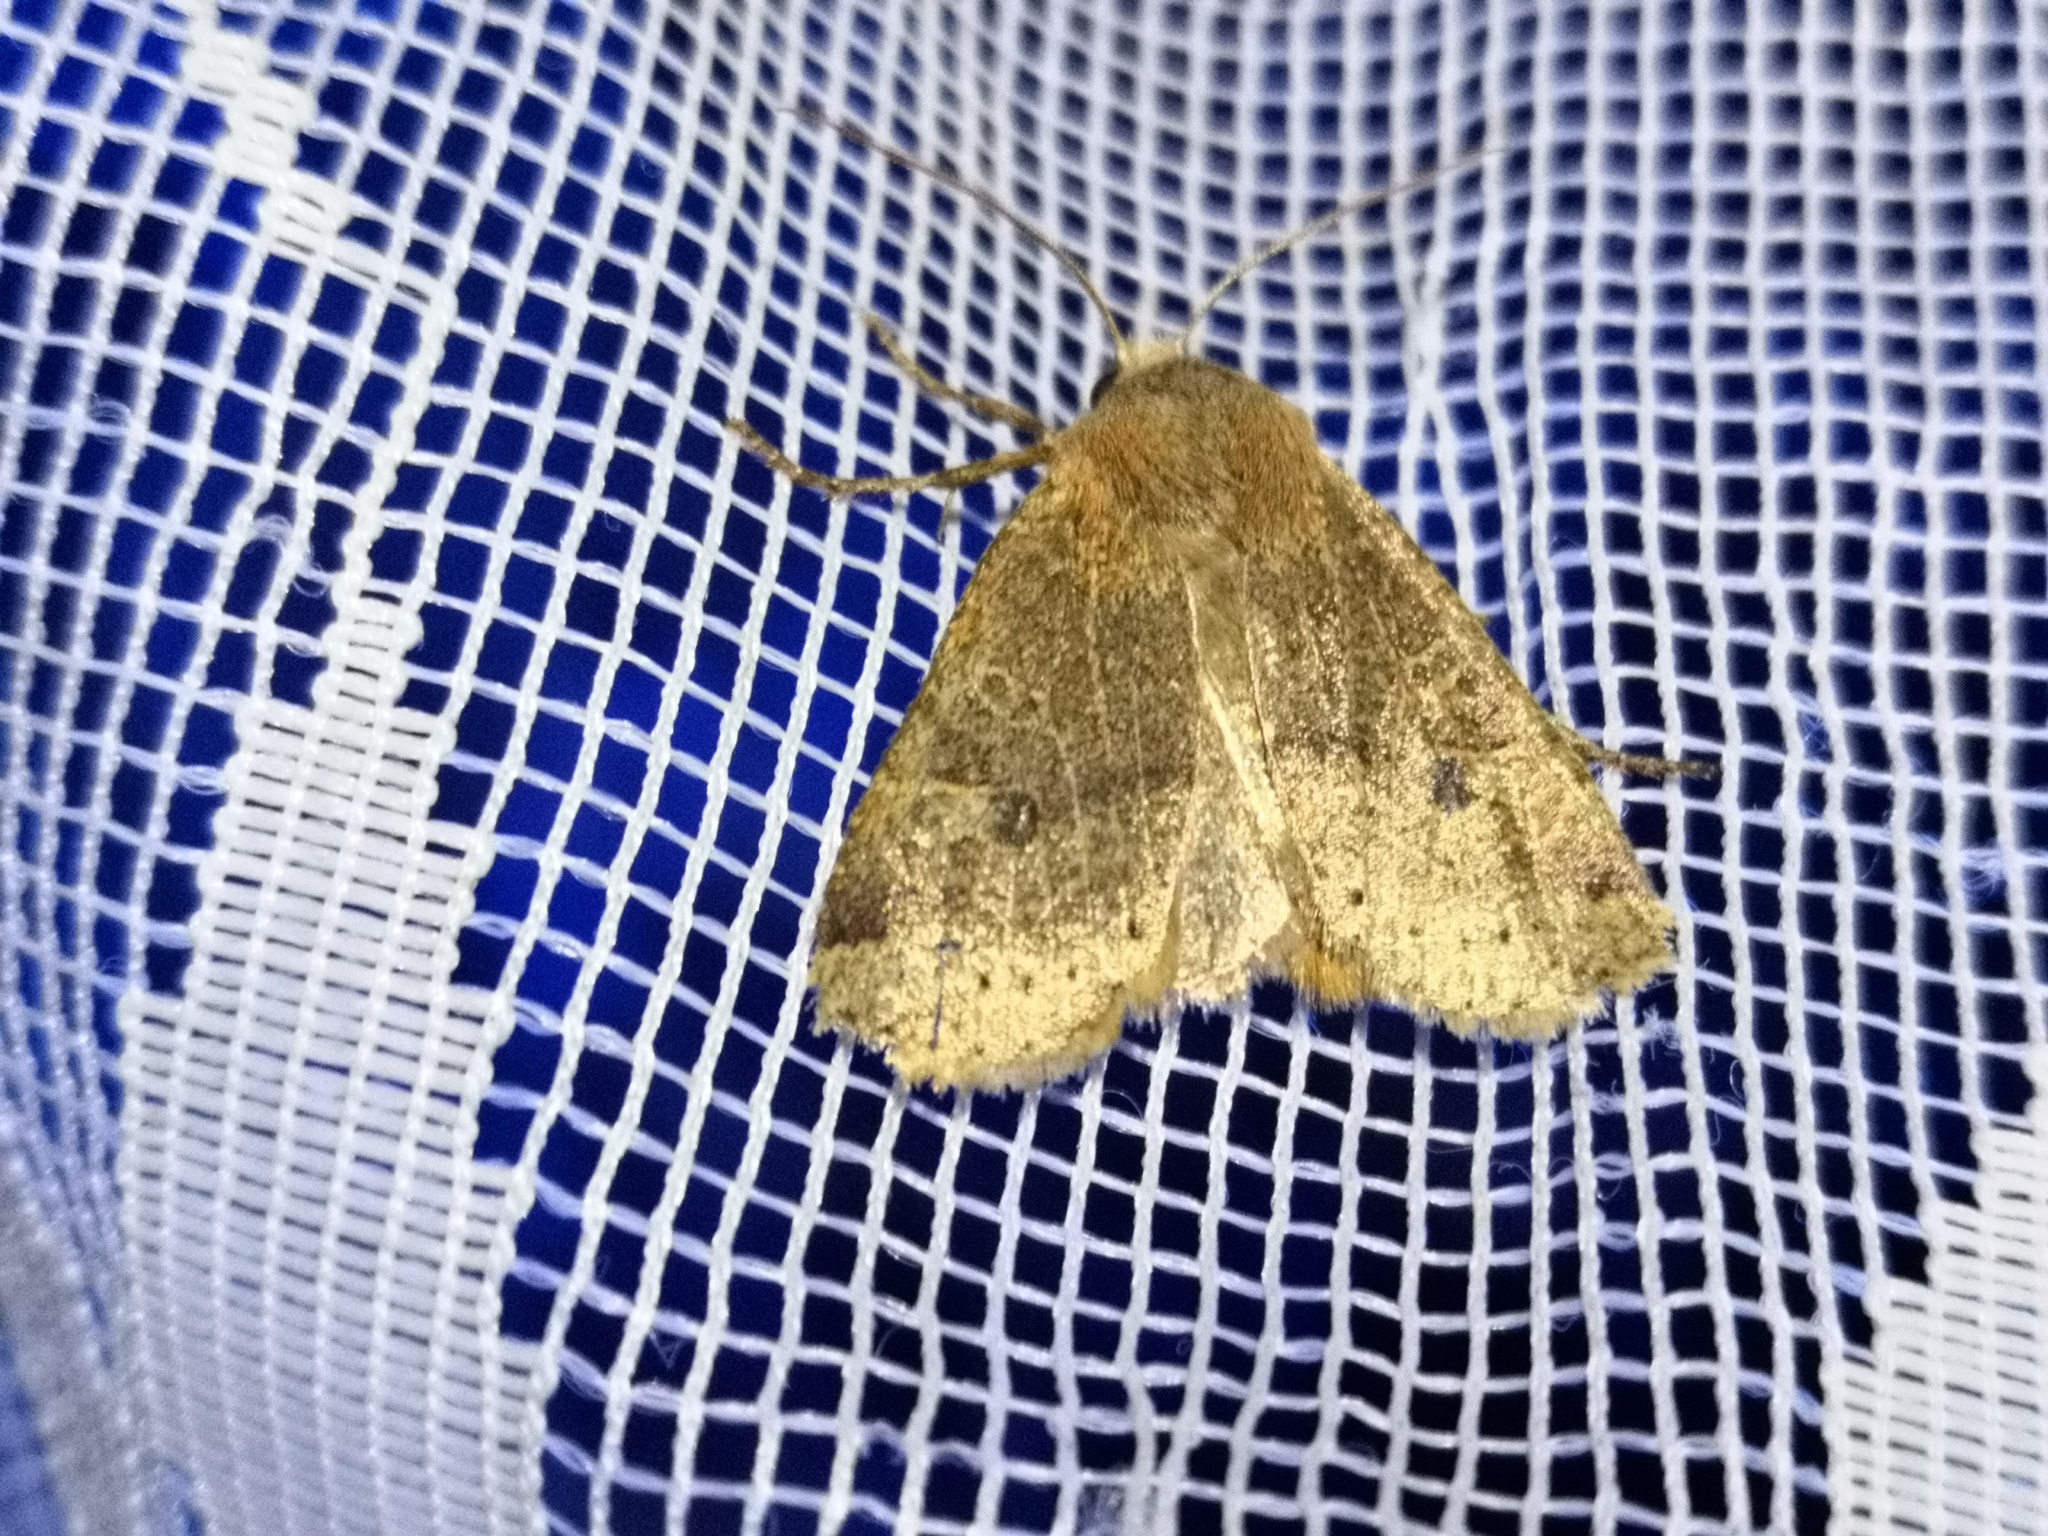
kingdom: Animalia
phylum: Arthropoda
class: Insecta
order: Lepidoptera
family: Noctuidae
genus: Conistra
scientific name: Conistra vaccinii
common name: Chestnut
